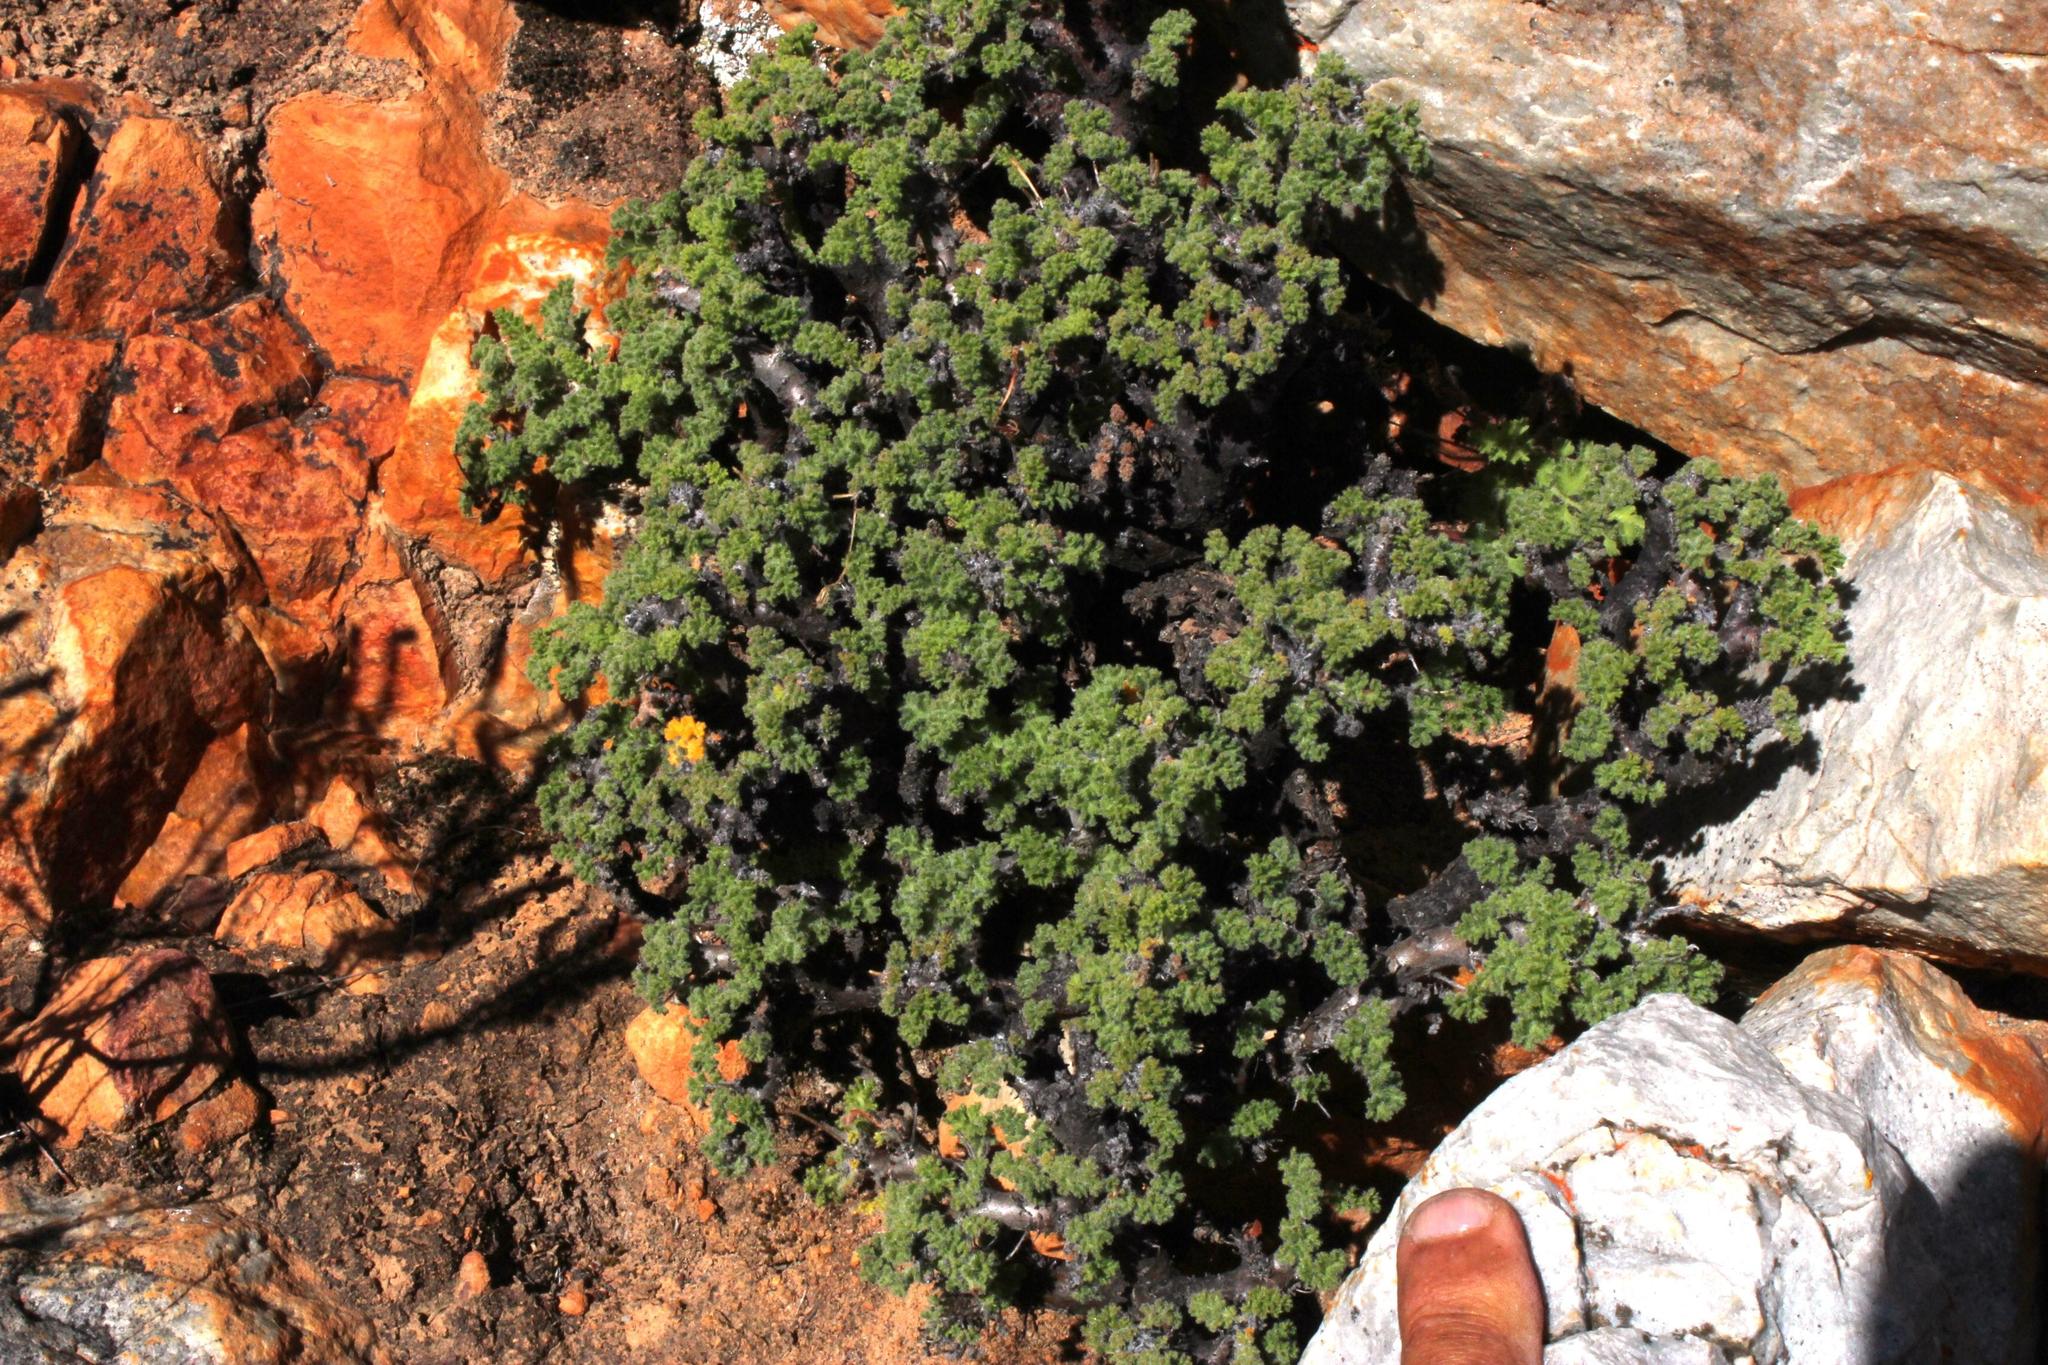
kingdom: Plantae
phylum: Tracheophyta
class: Magnoliopsida
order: Geraniales
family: Geraniaceae
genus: Pelargonium
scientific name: Pelargonium alternans
